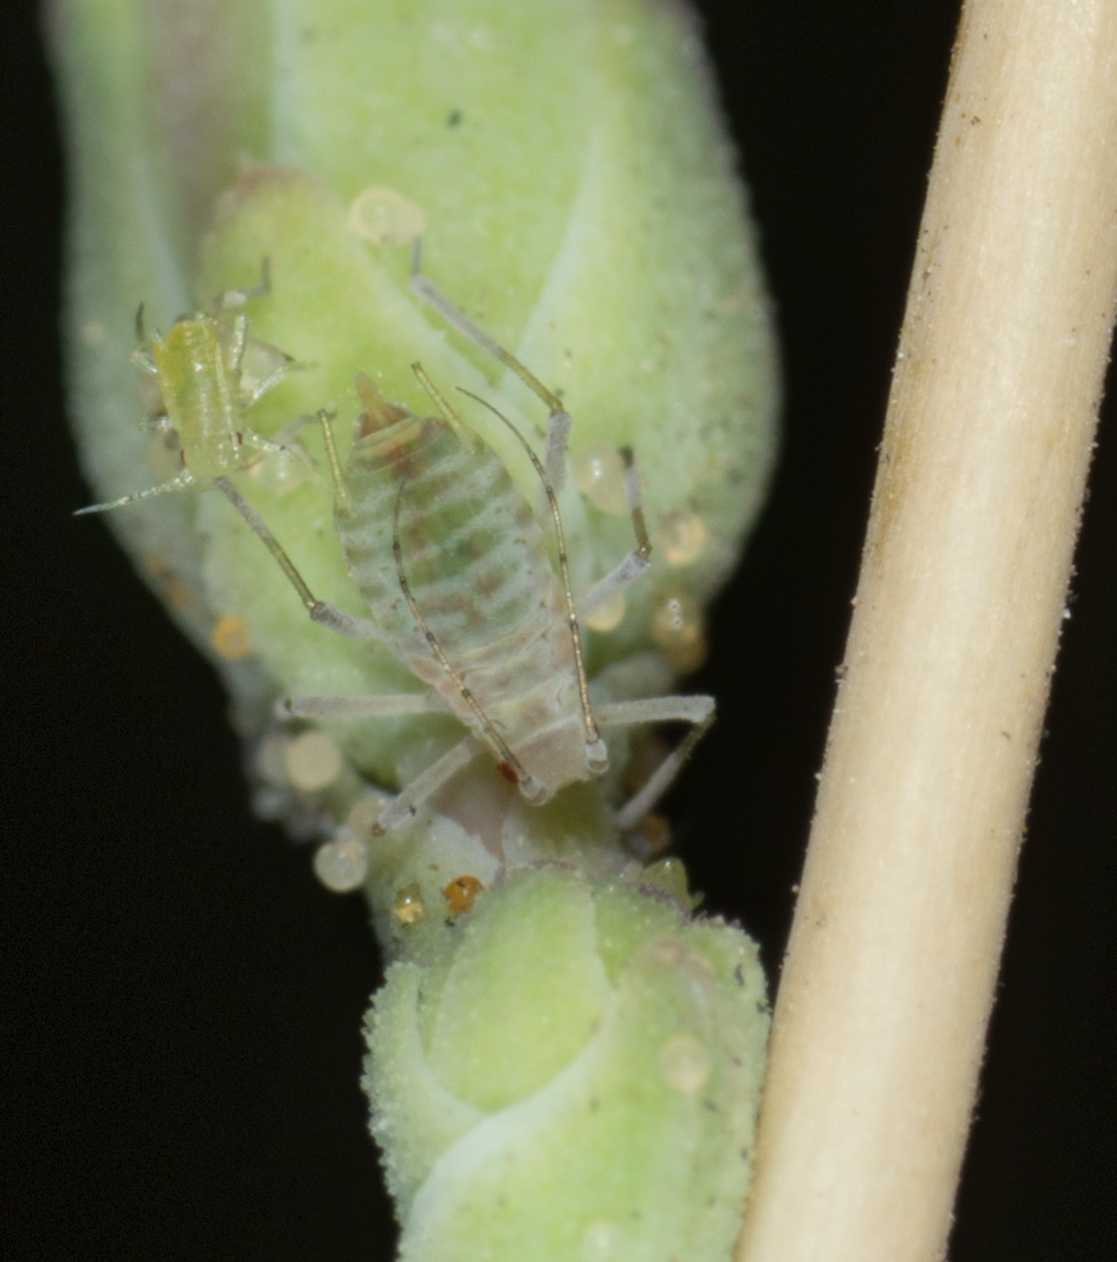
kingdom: Animalia
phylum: Arthropoda
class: Insecta
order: Hemiptera
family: Aphididae
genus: Acyrthosiphon
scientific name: Acyrthosiphon lactucae
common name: Aphid
